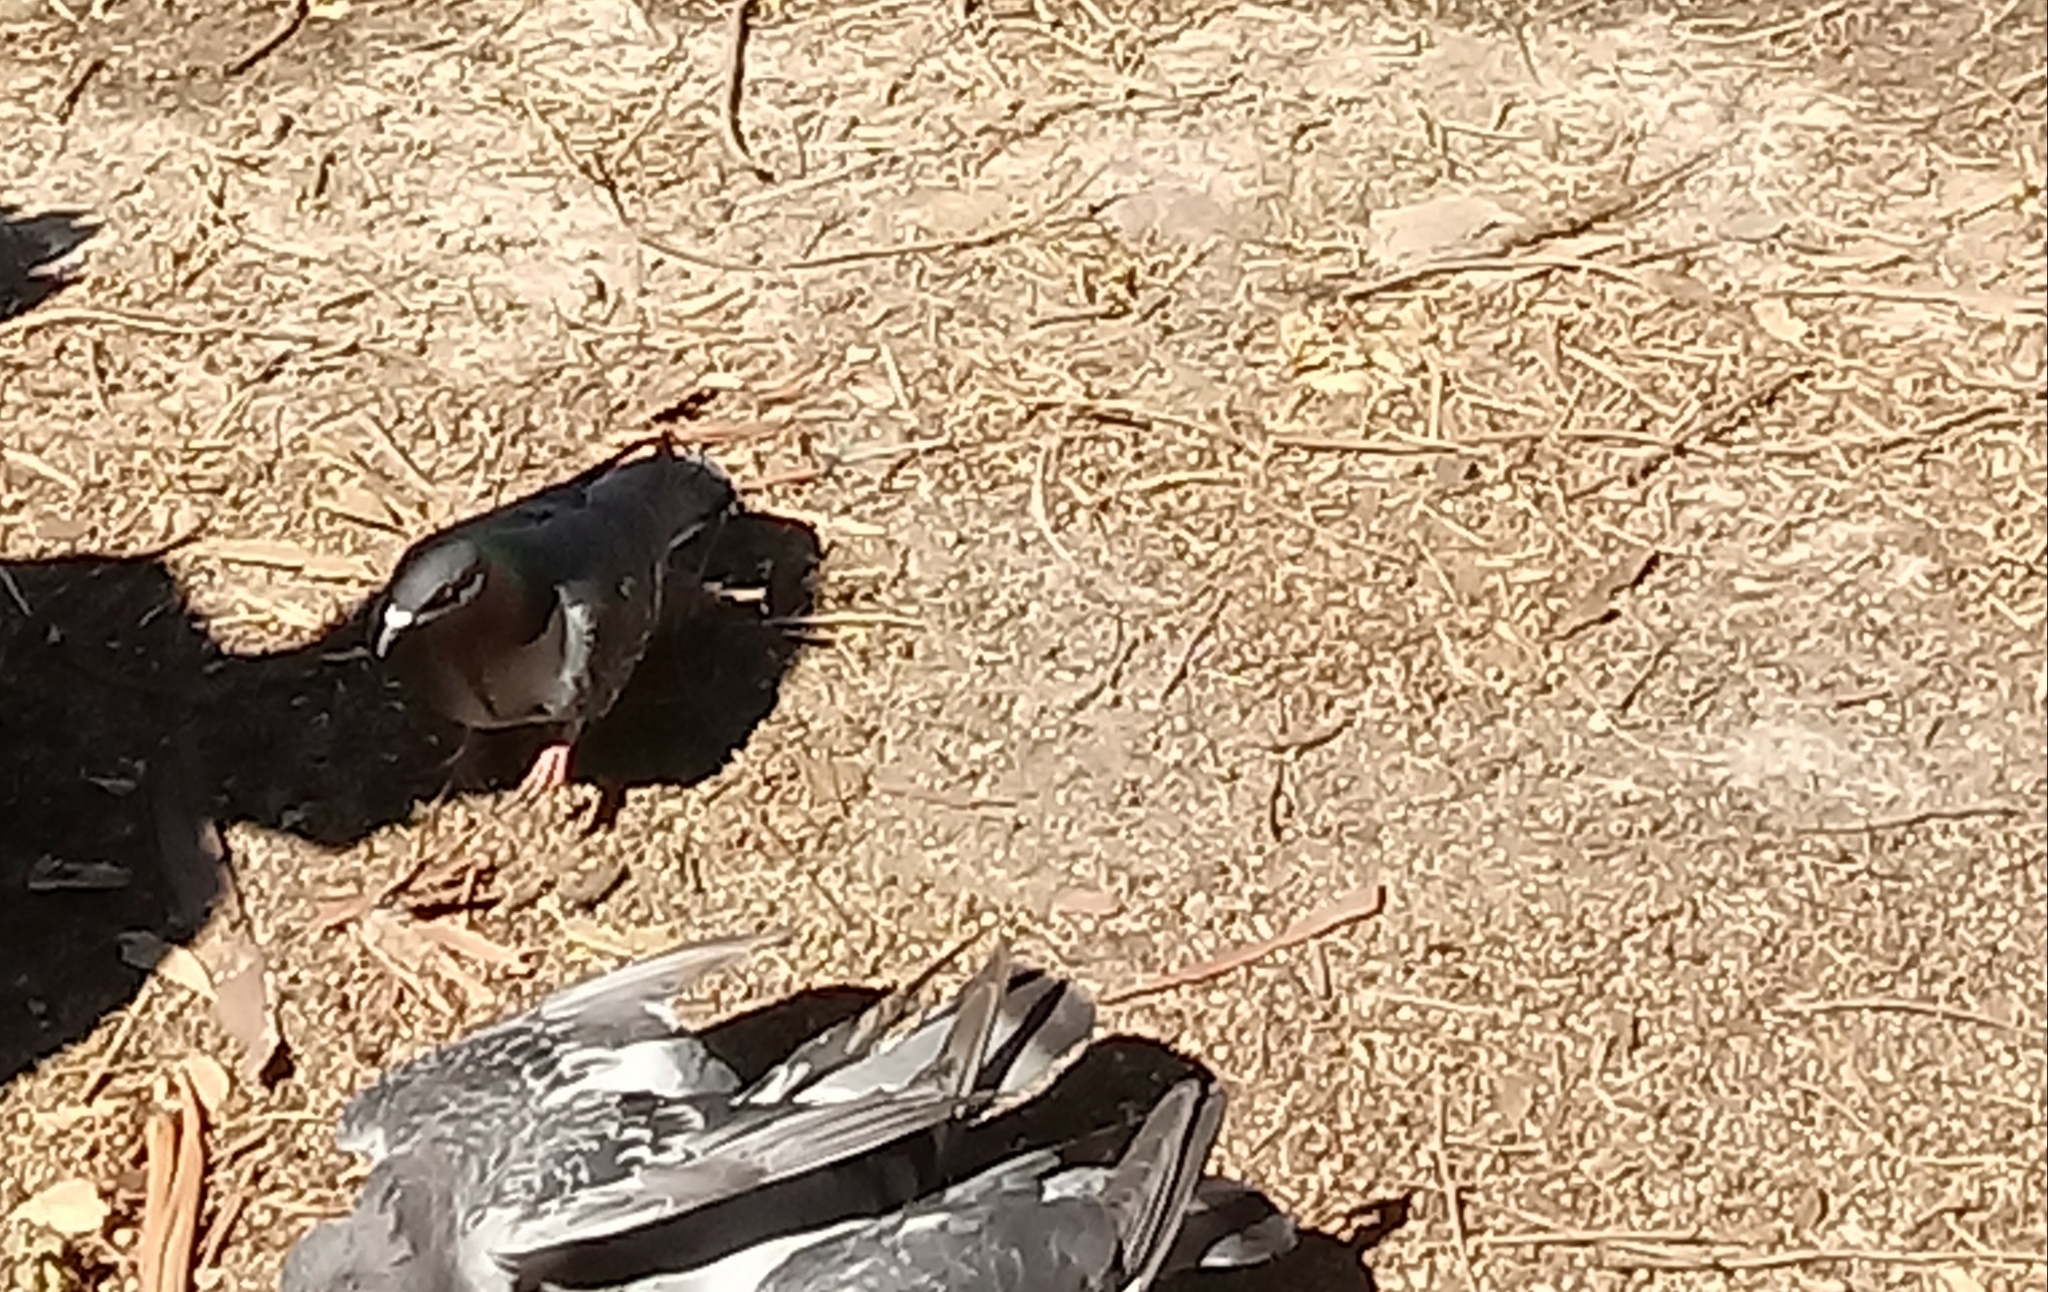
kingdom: Animalia
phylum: Chordata
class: Aves
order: Columbiformes
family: Columbidae
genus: Columba
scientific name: Columba livia
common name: Rock pigeon
